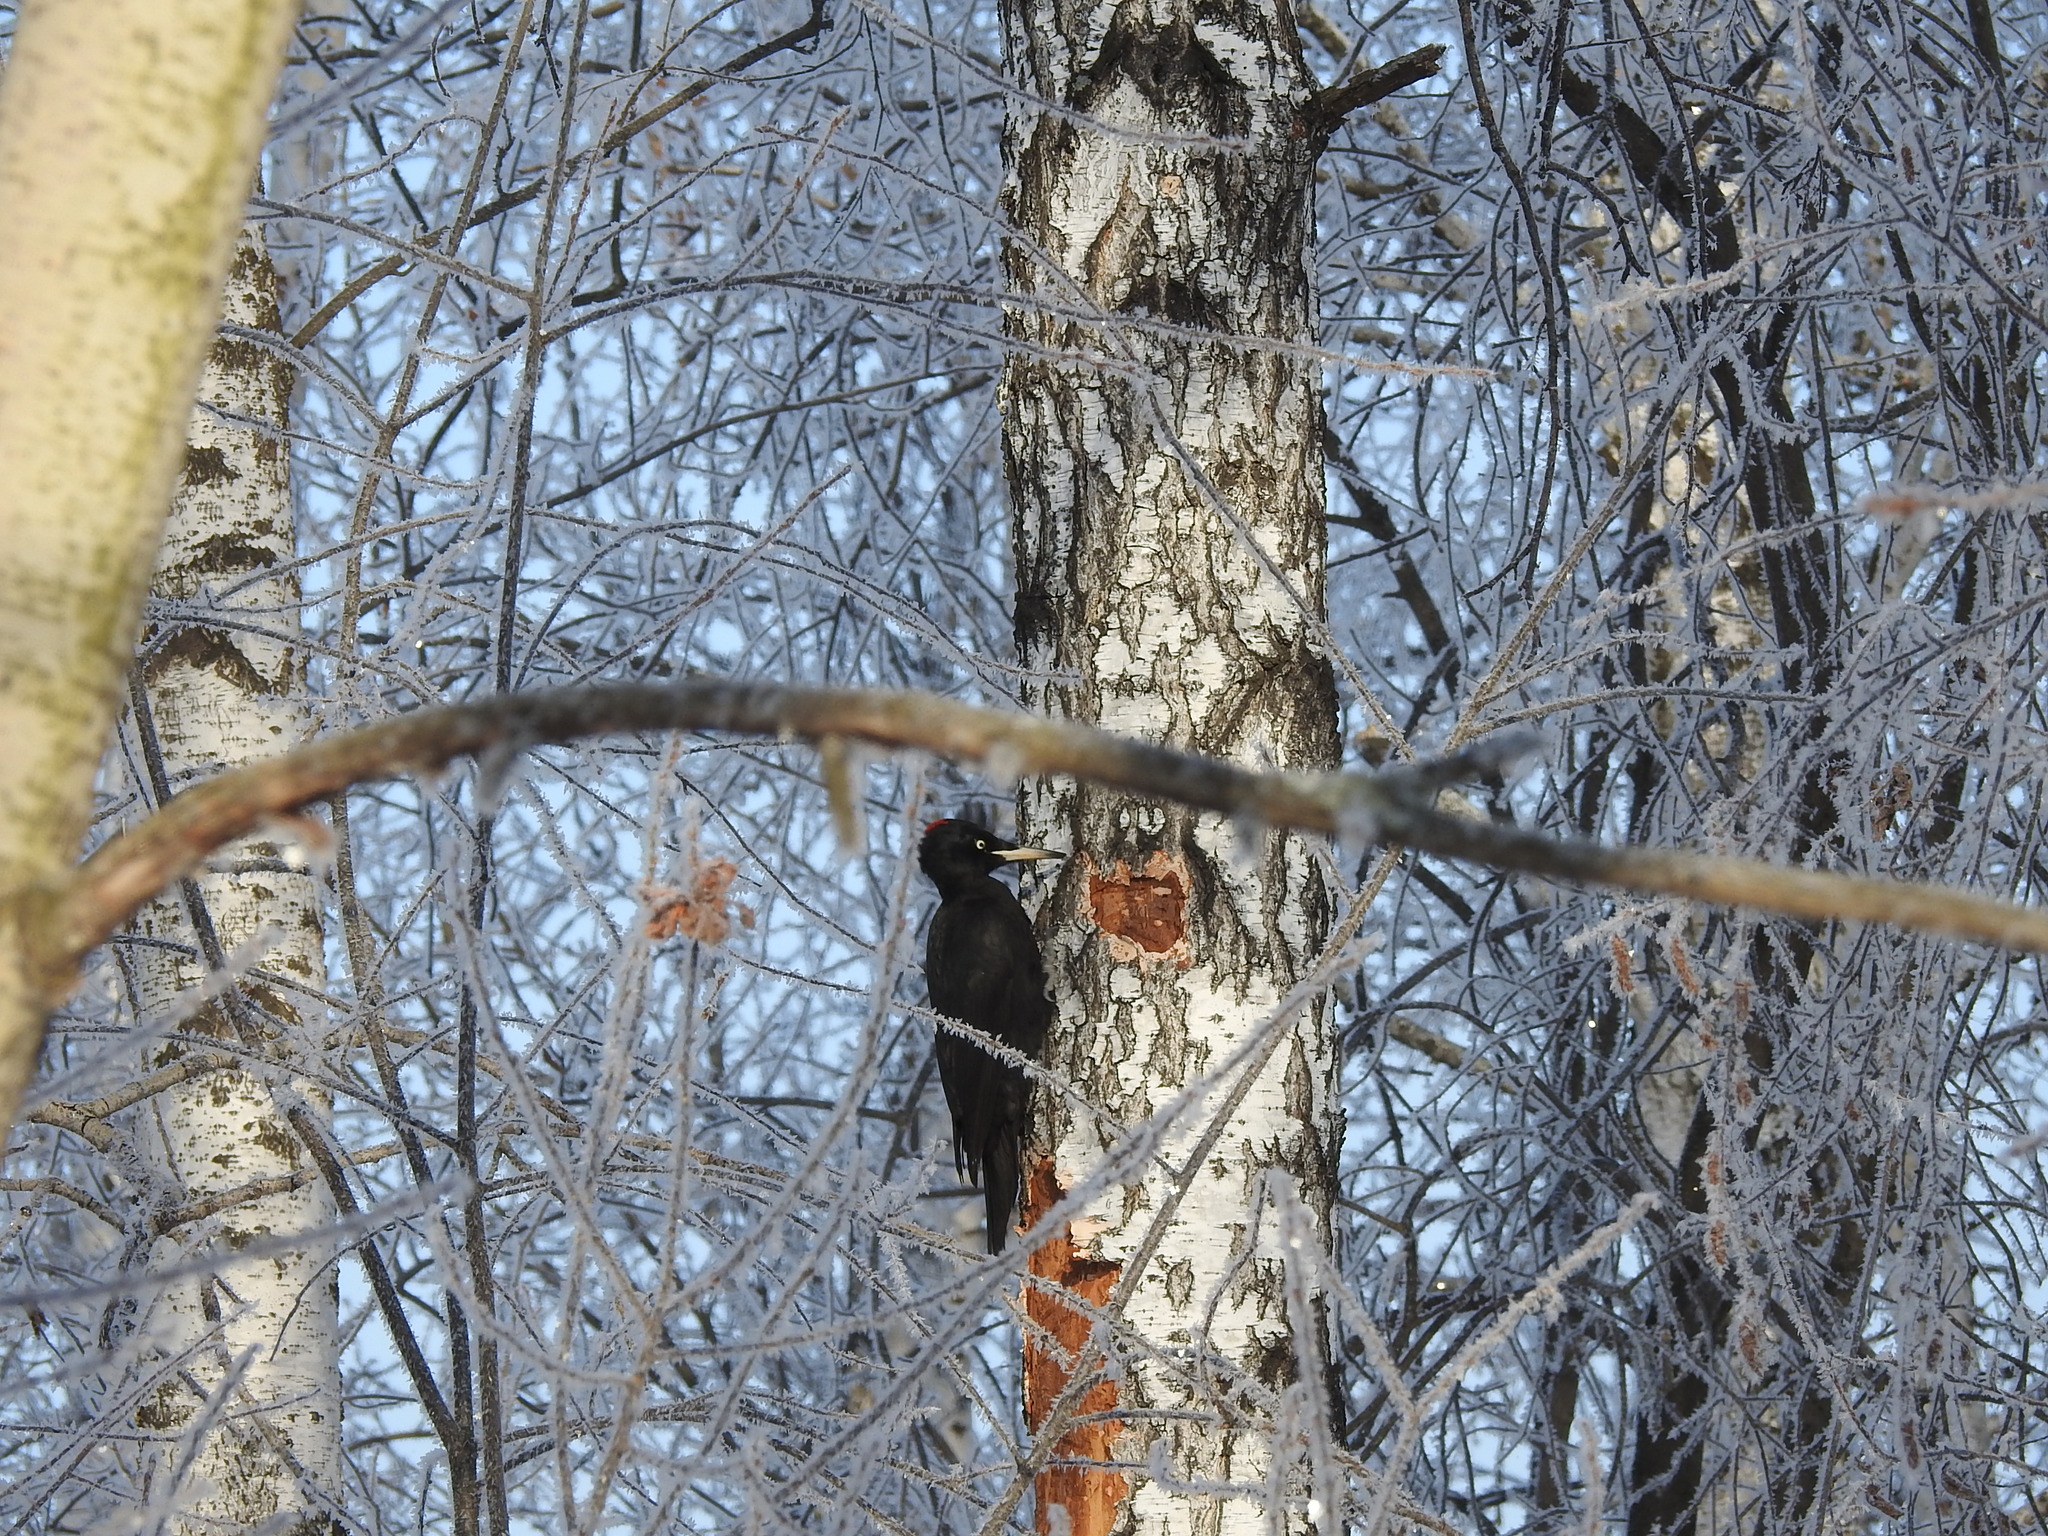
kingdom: Animalia
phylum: Chordata
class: Aves
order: Piciformes
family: Picidae
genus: Dryocopus
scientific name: Dryocopus martius
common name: Black woodpecker
